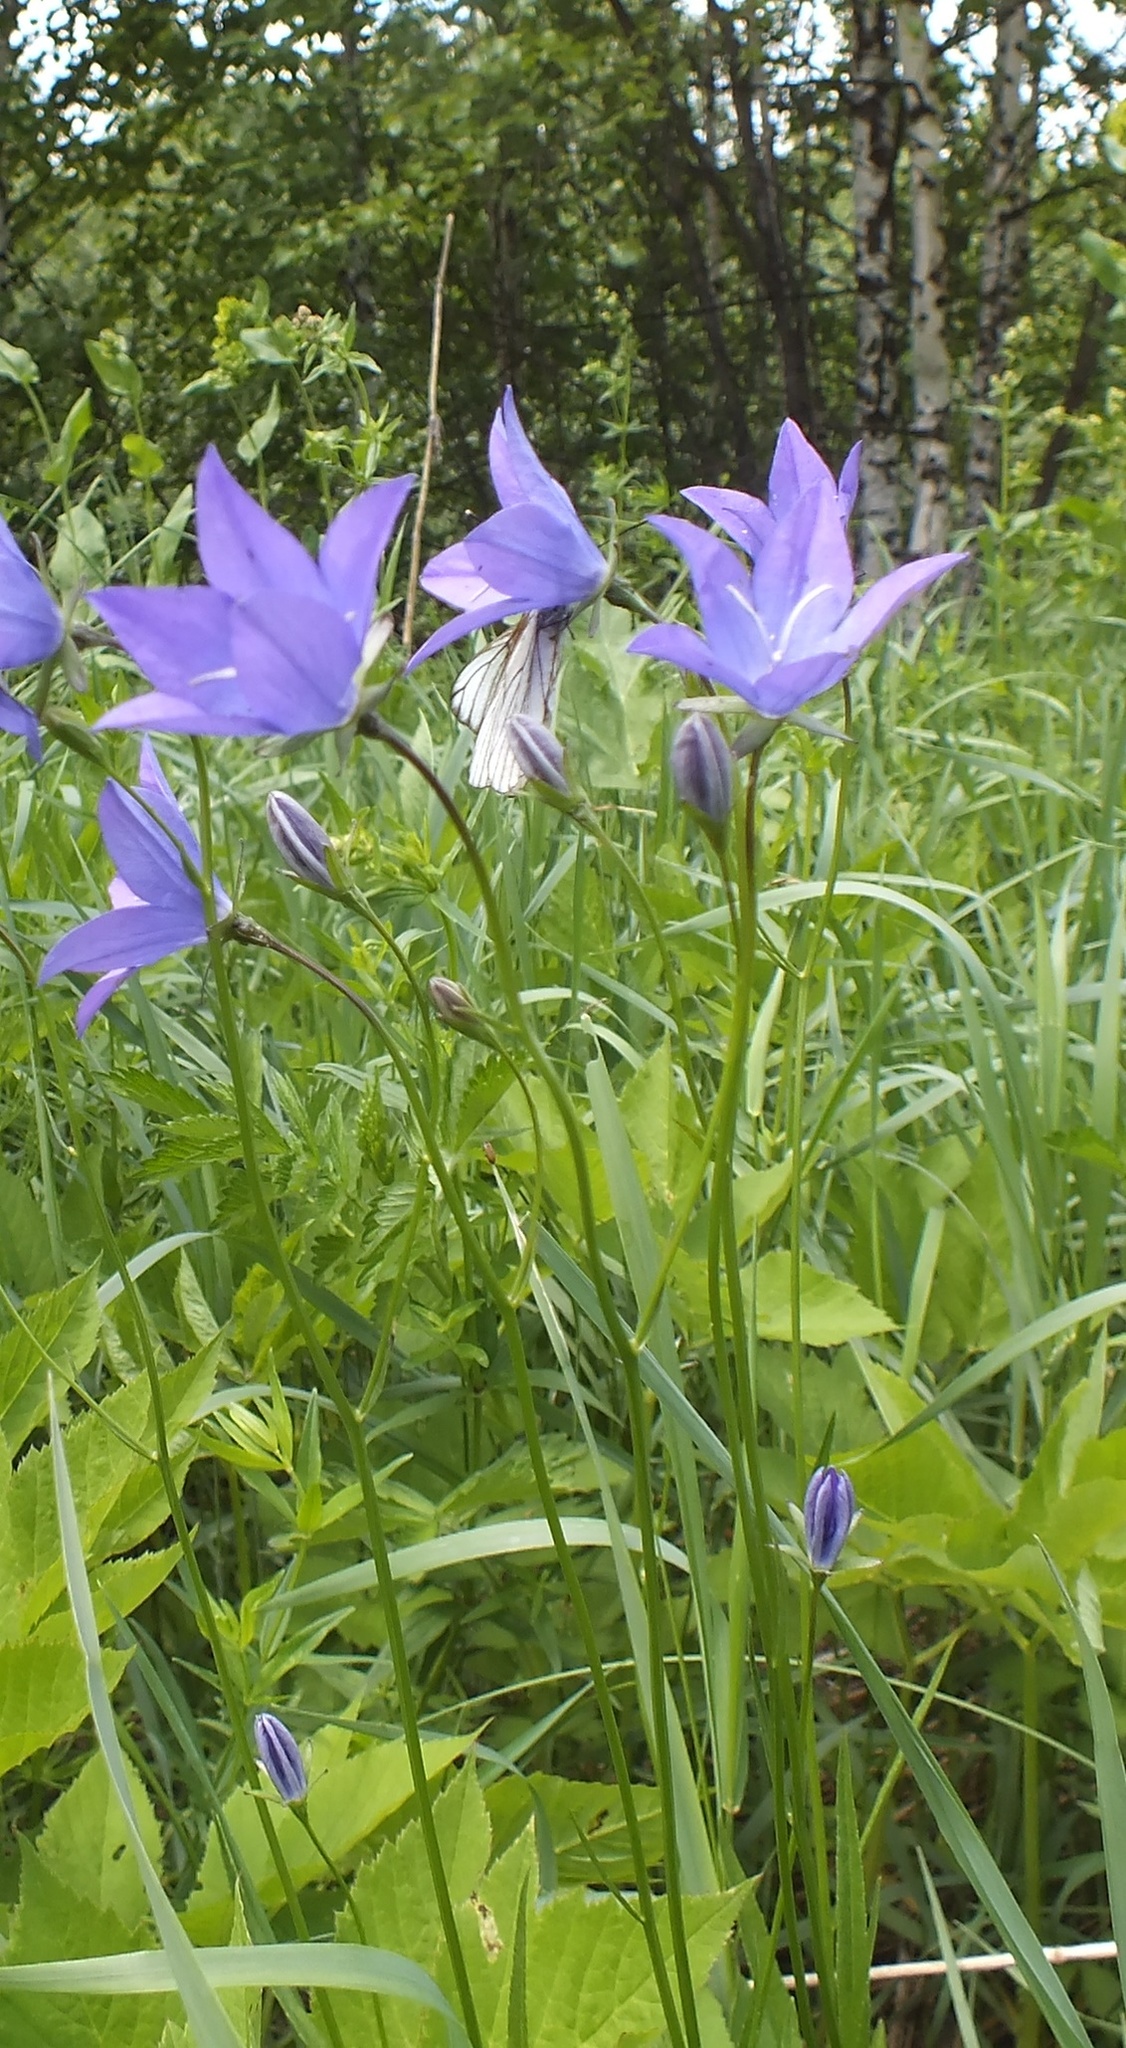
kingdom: Plantae
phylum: Tracheophyta
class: Magnoliopsida
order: Asterales
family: Campanulaceae
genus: Campanula
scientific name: Campanula stevenii
